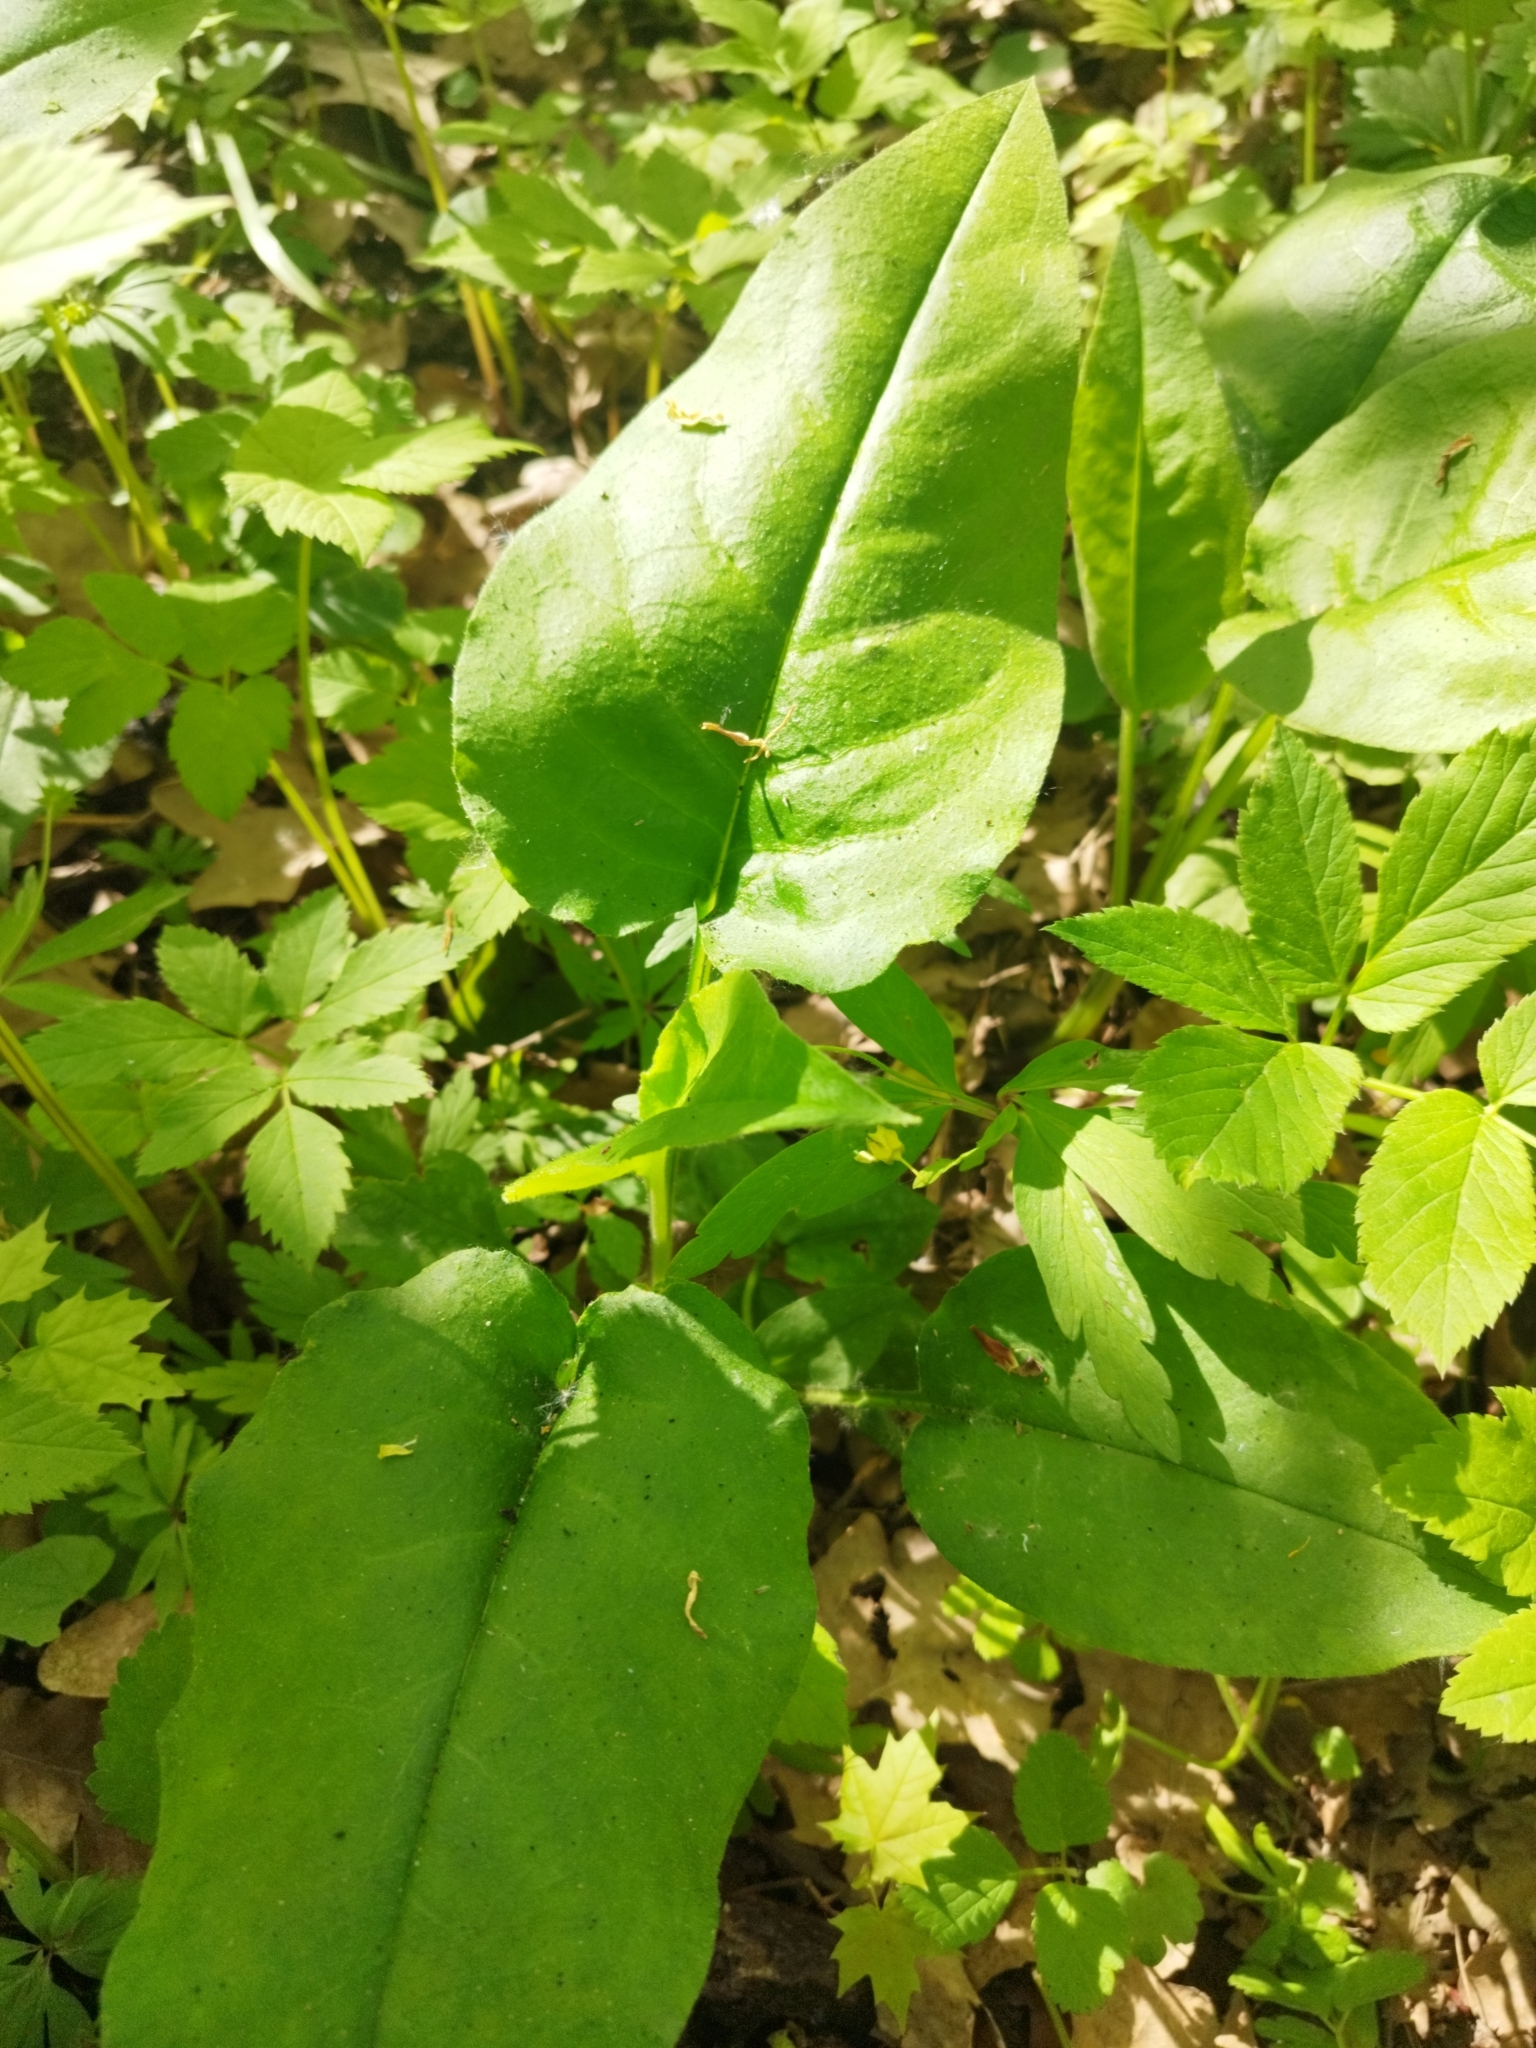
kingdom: Plantae
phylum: Tracheophyta
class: Magnoliopsida
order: Boraginales
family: Boraginaceae
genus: Pulmonaria
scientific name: Pulmonaria obscura
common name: Suffolk lungwort
